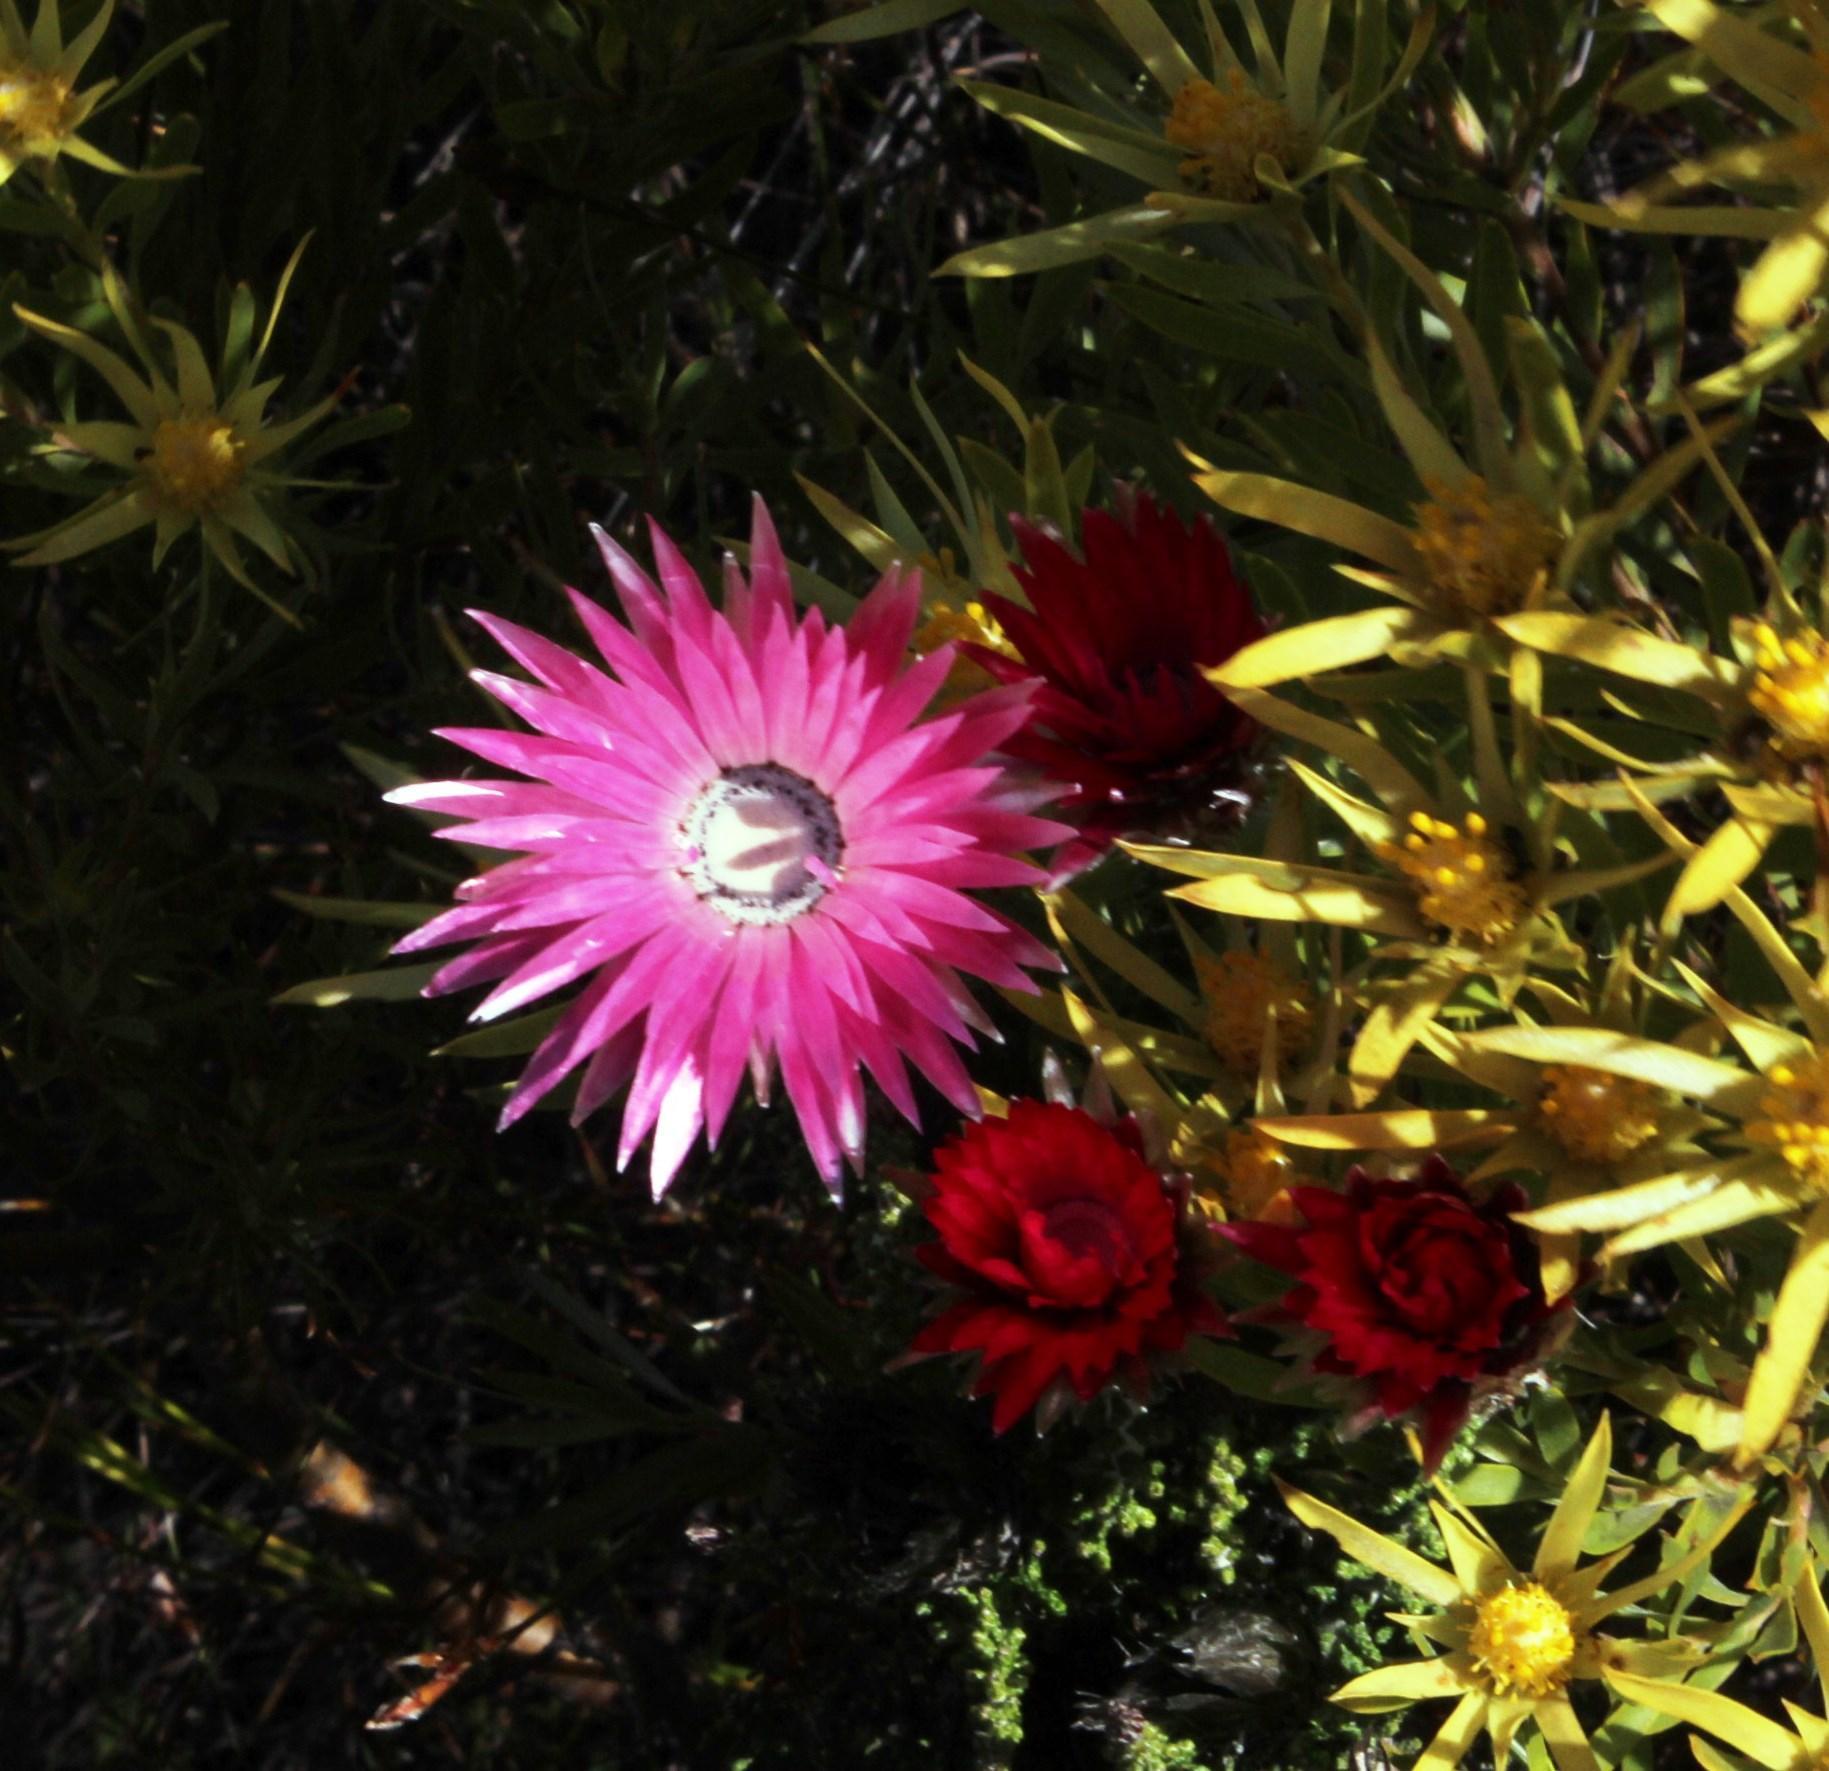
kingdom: Plantae
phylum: Tracheophyta
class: Magnoliopsida
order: Asterales
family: Asteraceae
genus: Phaenocoma
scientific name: Phaenocoma prolifera
